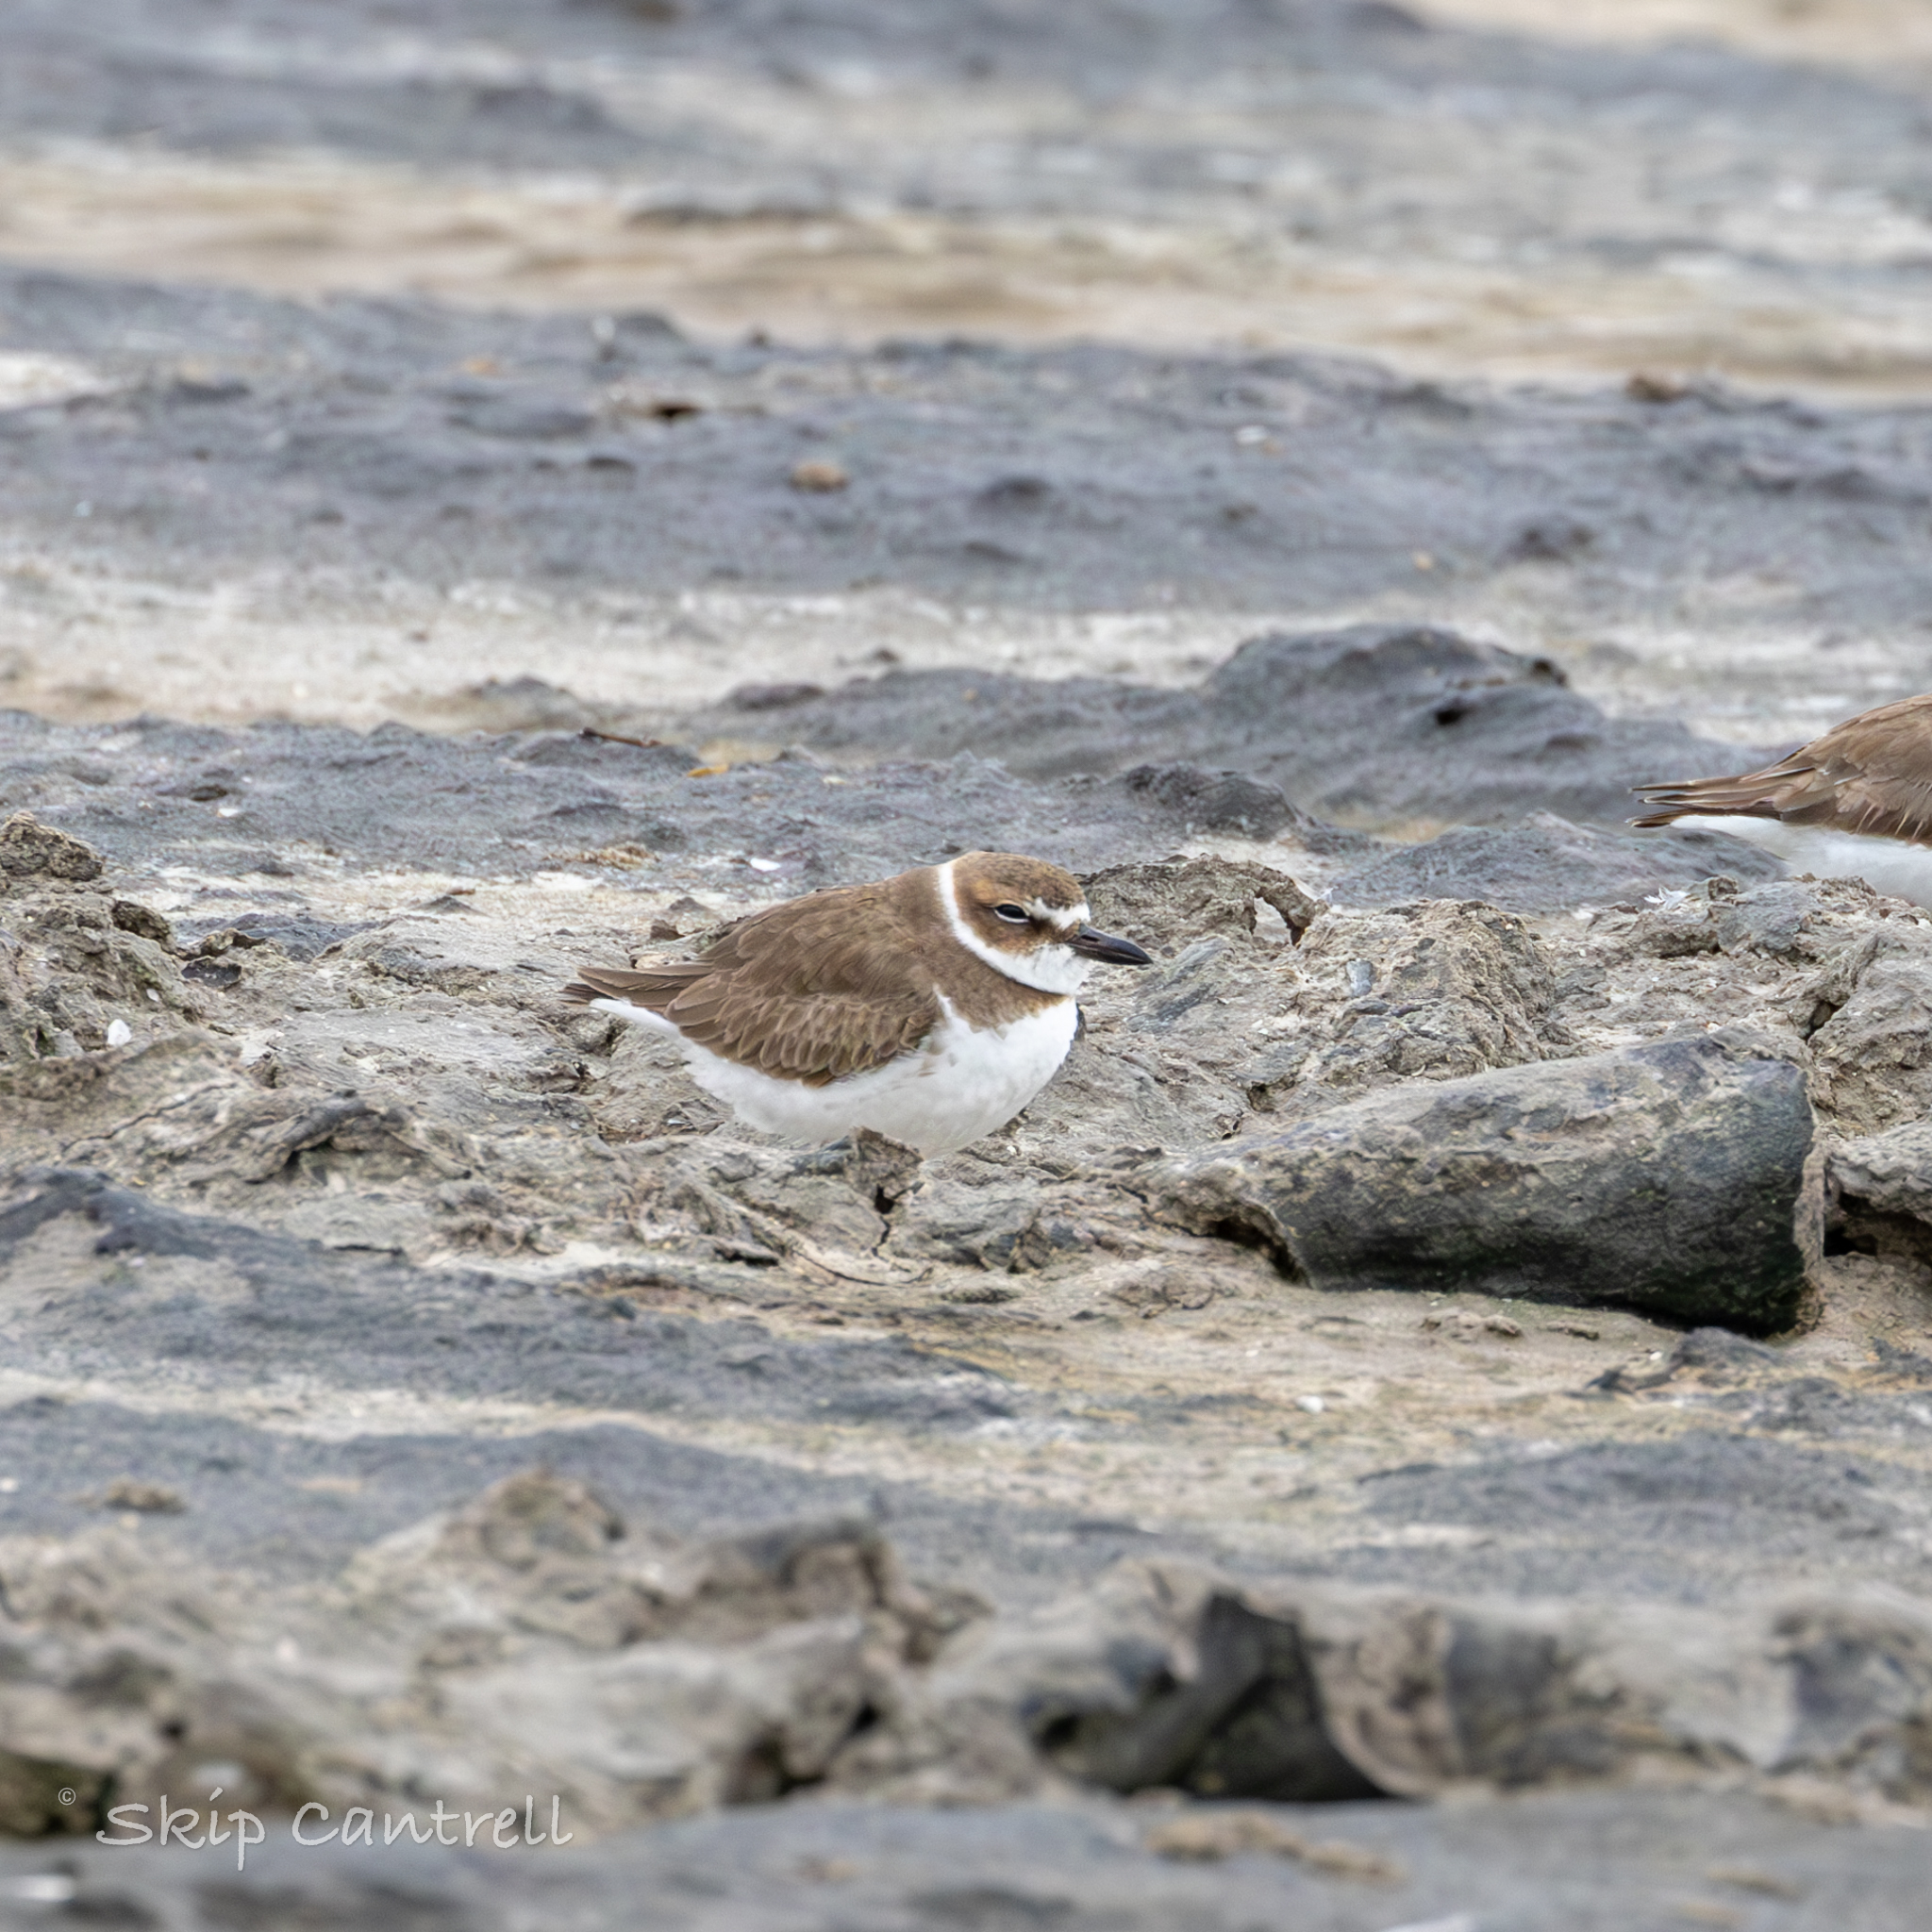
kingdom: Animalia
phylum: Chordata
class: Aves
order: Charadriiformes
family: Charadriidae
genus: Anarhynchus
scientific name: Anarhynchus
